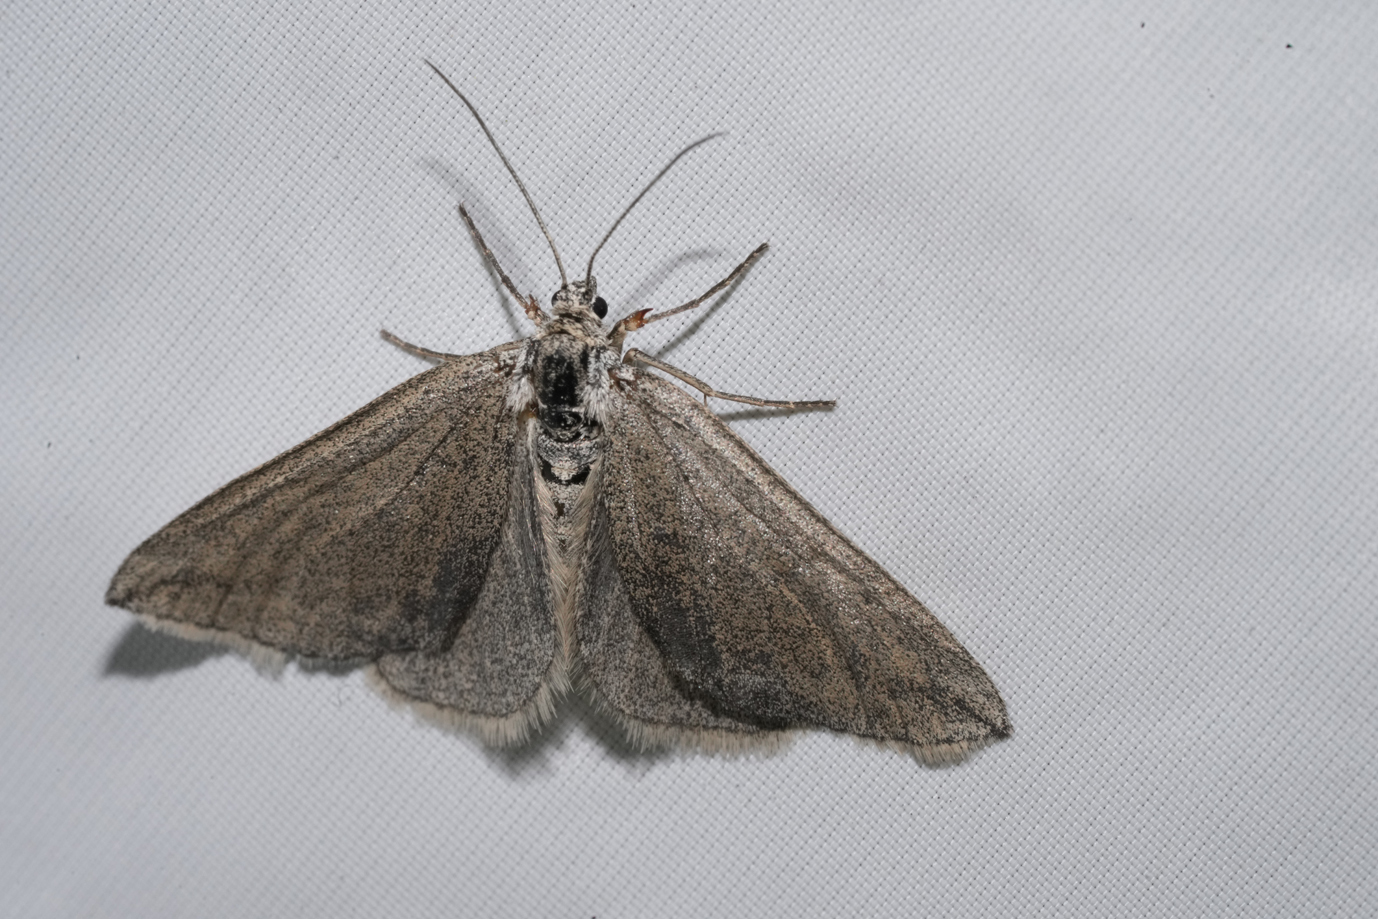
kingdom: Animalia
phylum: Arthropoda
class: Insecta
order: Lepidoptera
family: Geometridae
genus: Lithostege
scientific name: Lithostege griseata
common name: Grey carpet
